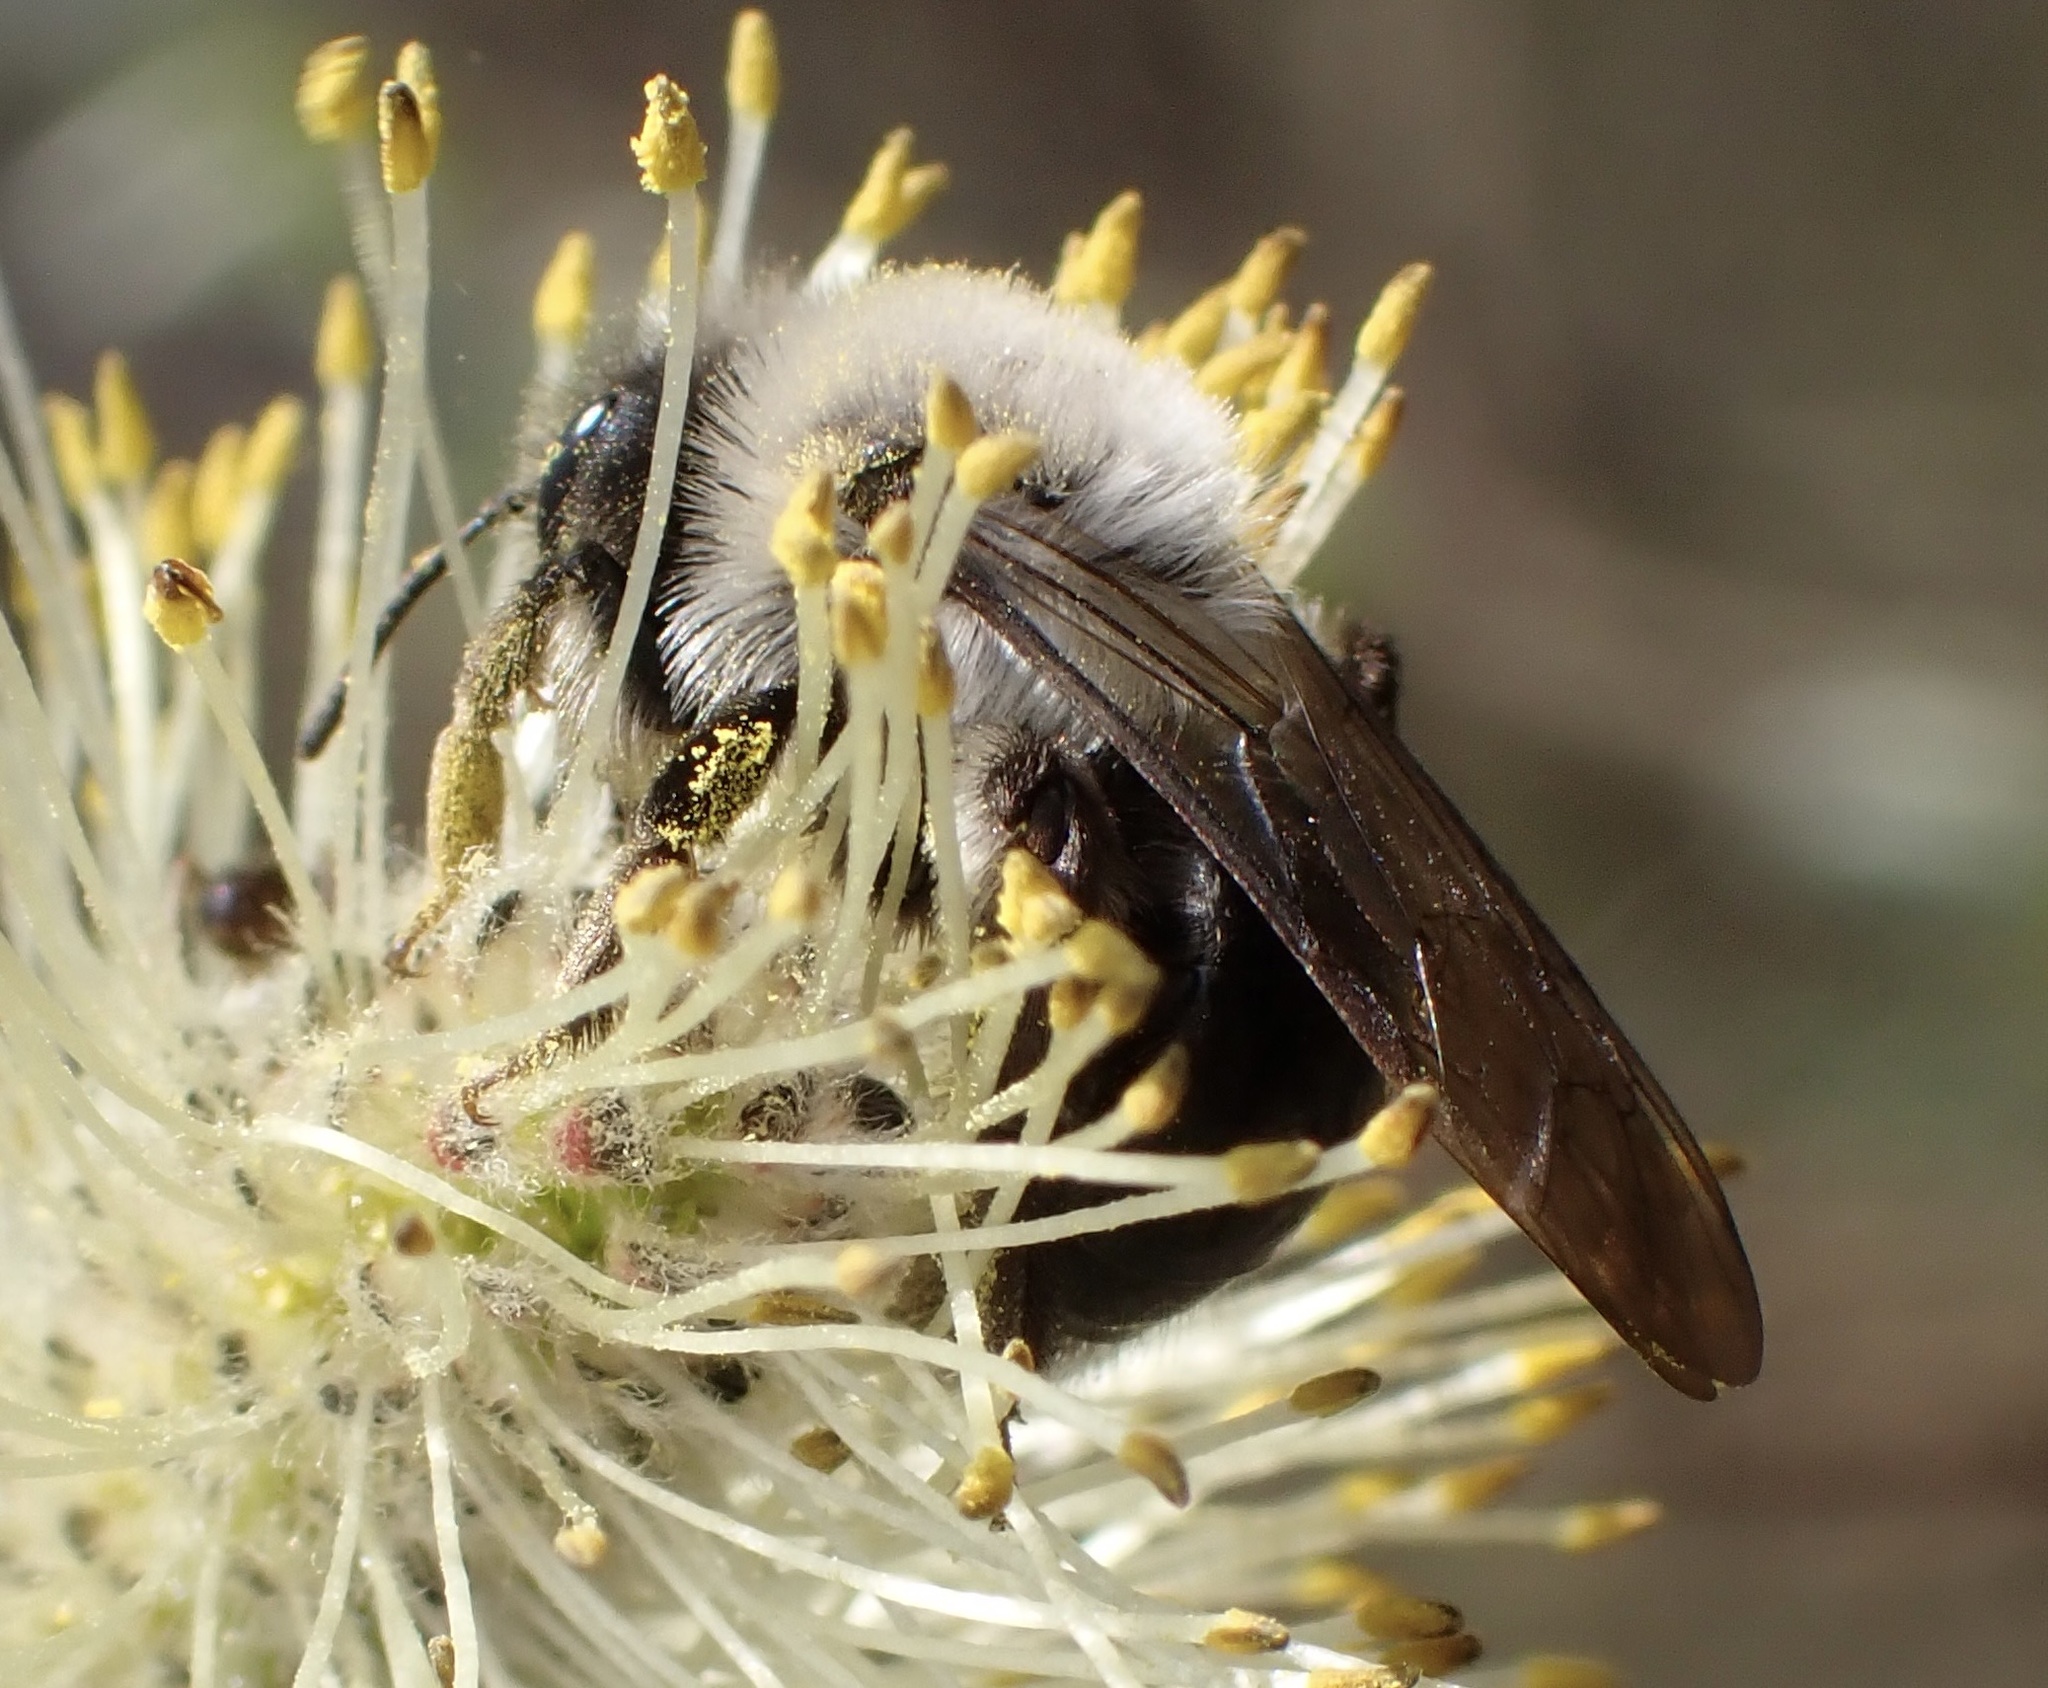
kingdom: Animalia
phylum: Arthropoda
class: Insecta
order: Hymenoptera
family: Andrenidae
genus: Andrena
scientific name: Andrena vaga
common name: Grey-backed mining bee
